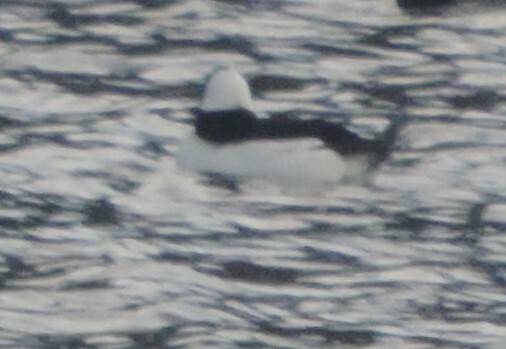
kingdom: Animalia
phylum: Chordata
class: Aves
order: Anseriformes
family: Anatidae
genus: Bucephala
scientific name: Bucephala albeola
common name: Bufflehead
